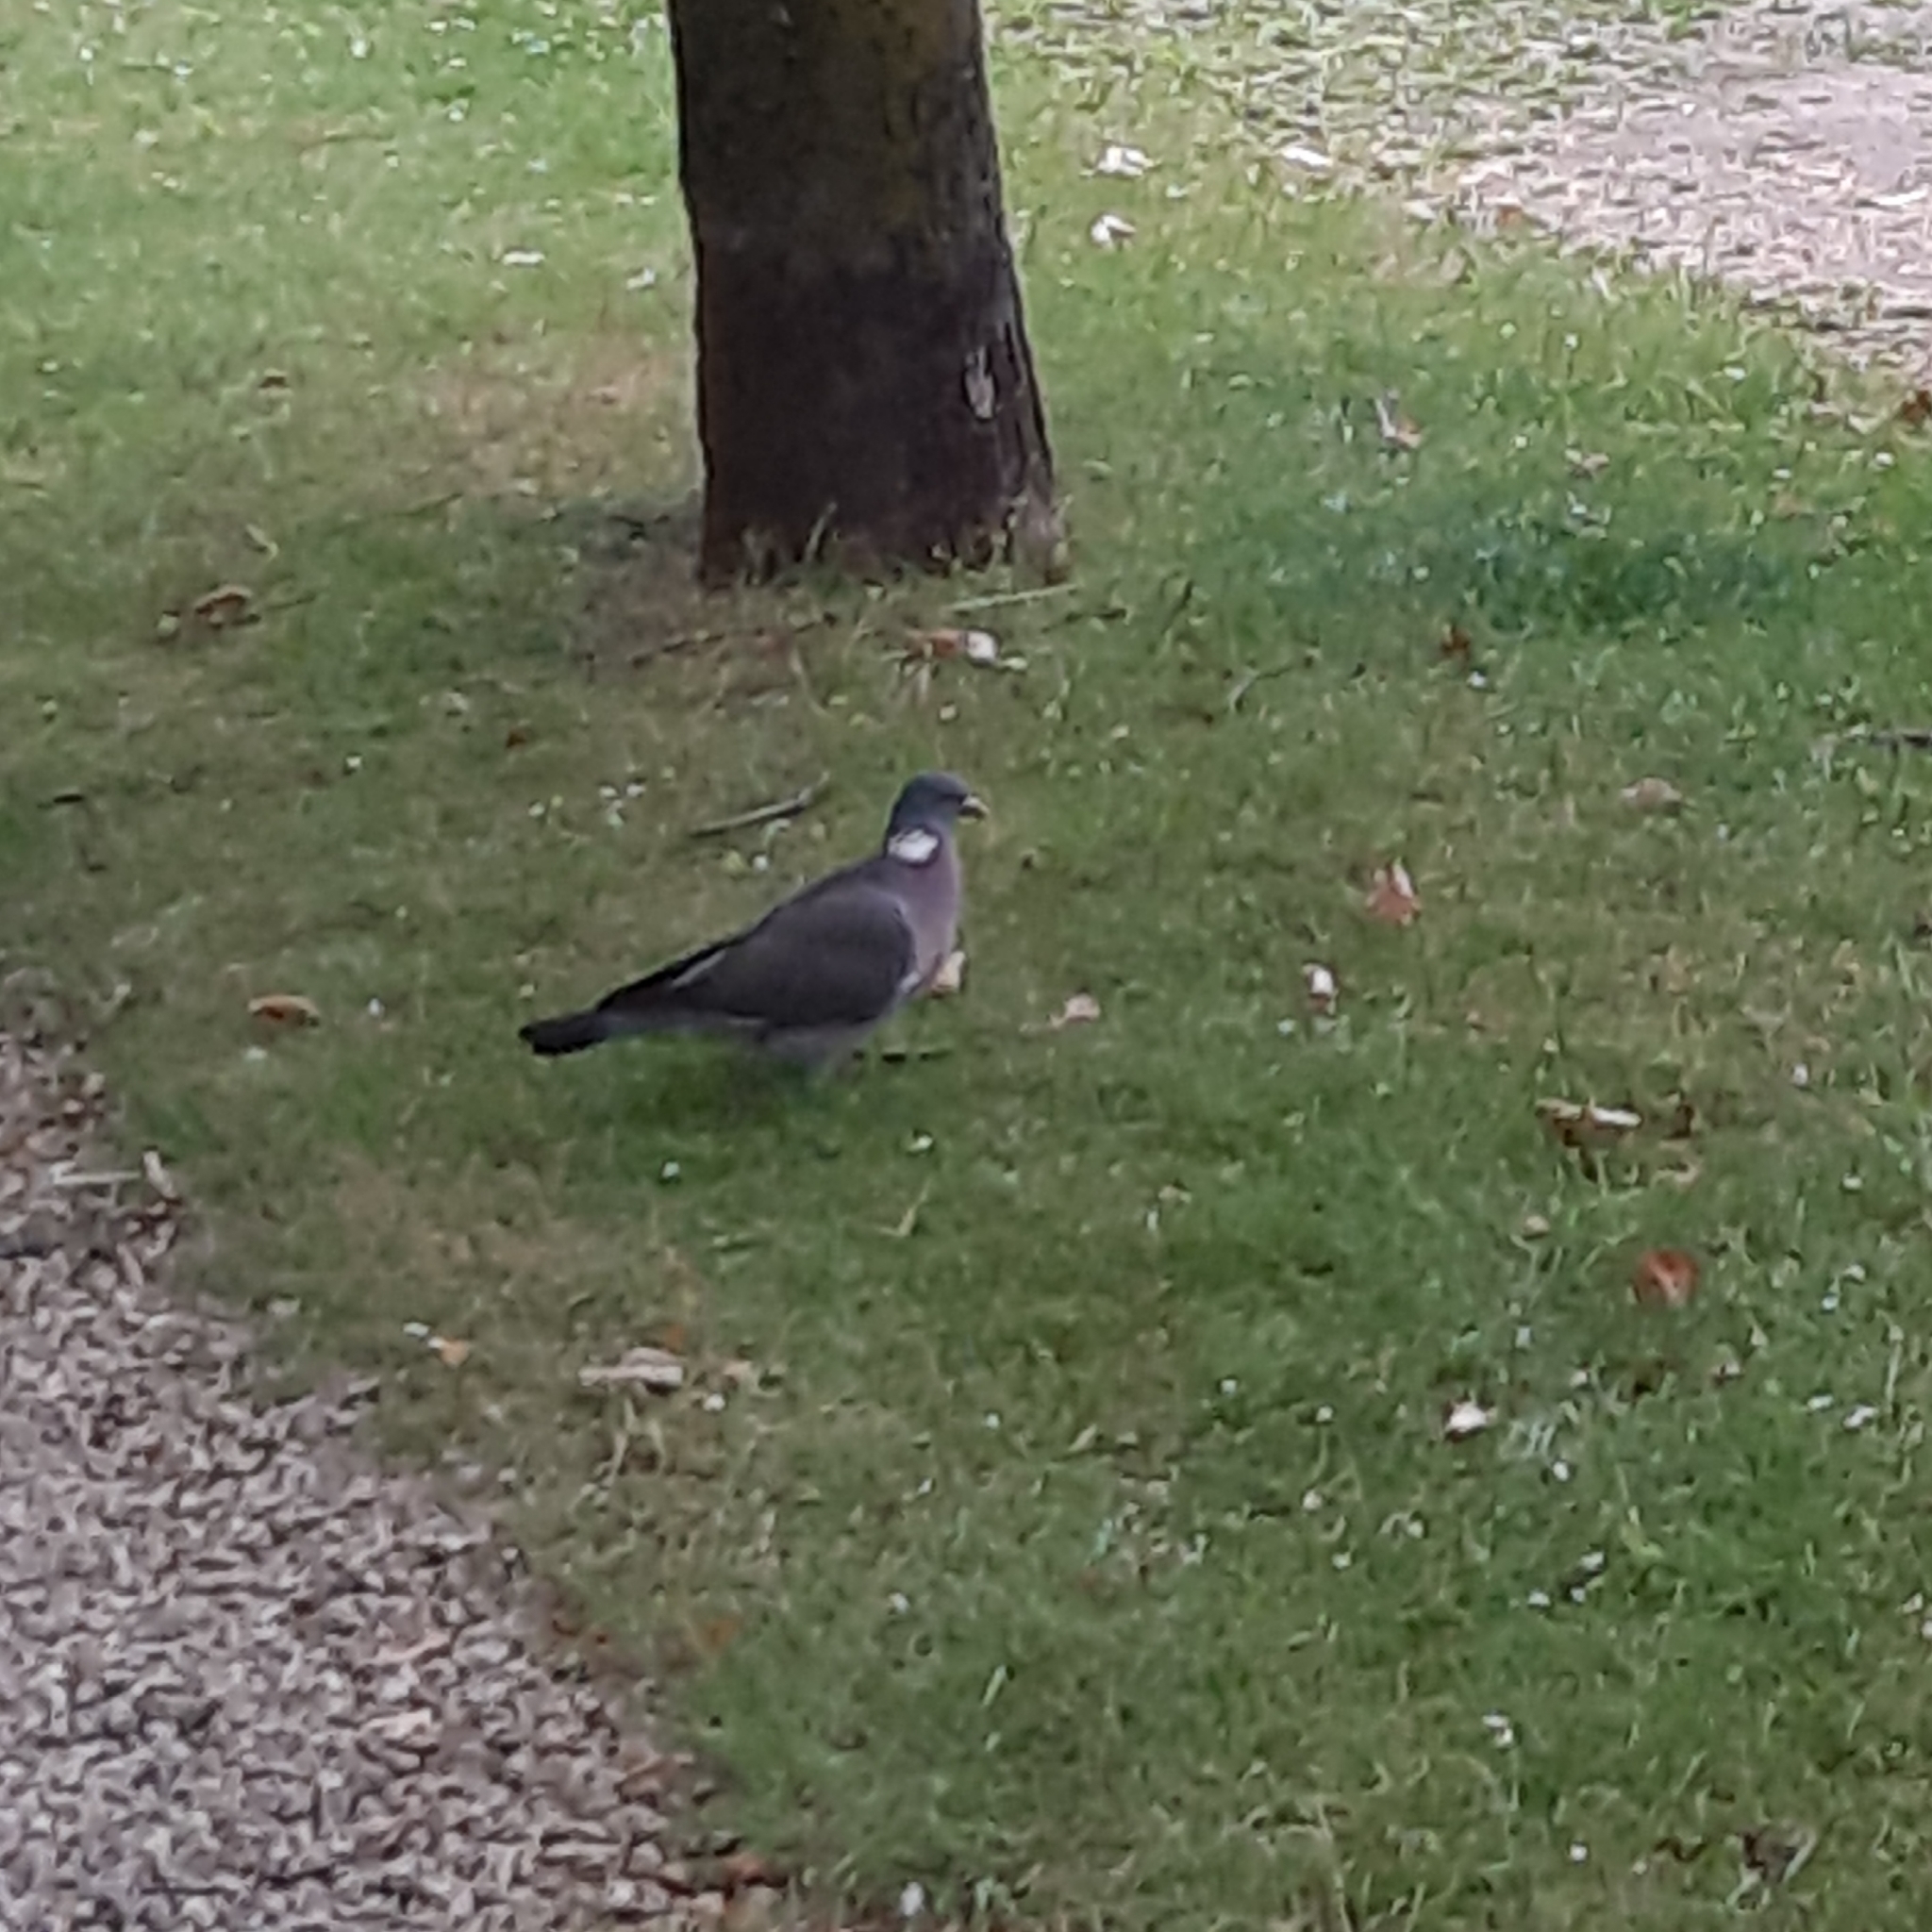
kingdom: Animalia
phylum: Chordata
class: Aves
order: Columbiformes
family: Columbidae
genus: Columba
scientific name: Columba palumbus
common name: Common wood pigeon
